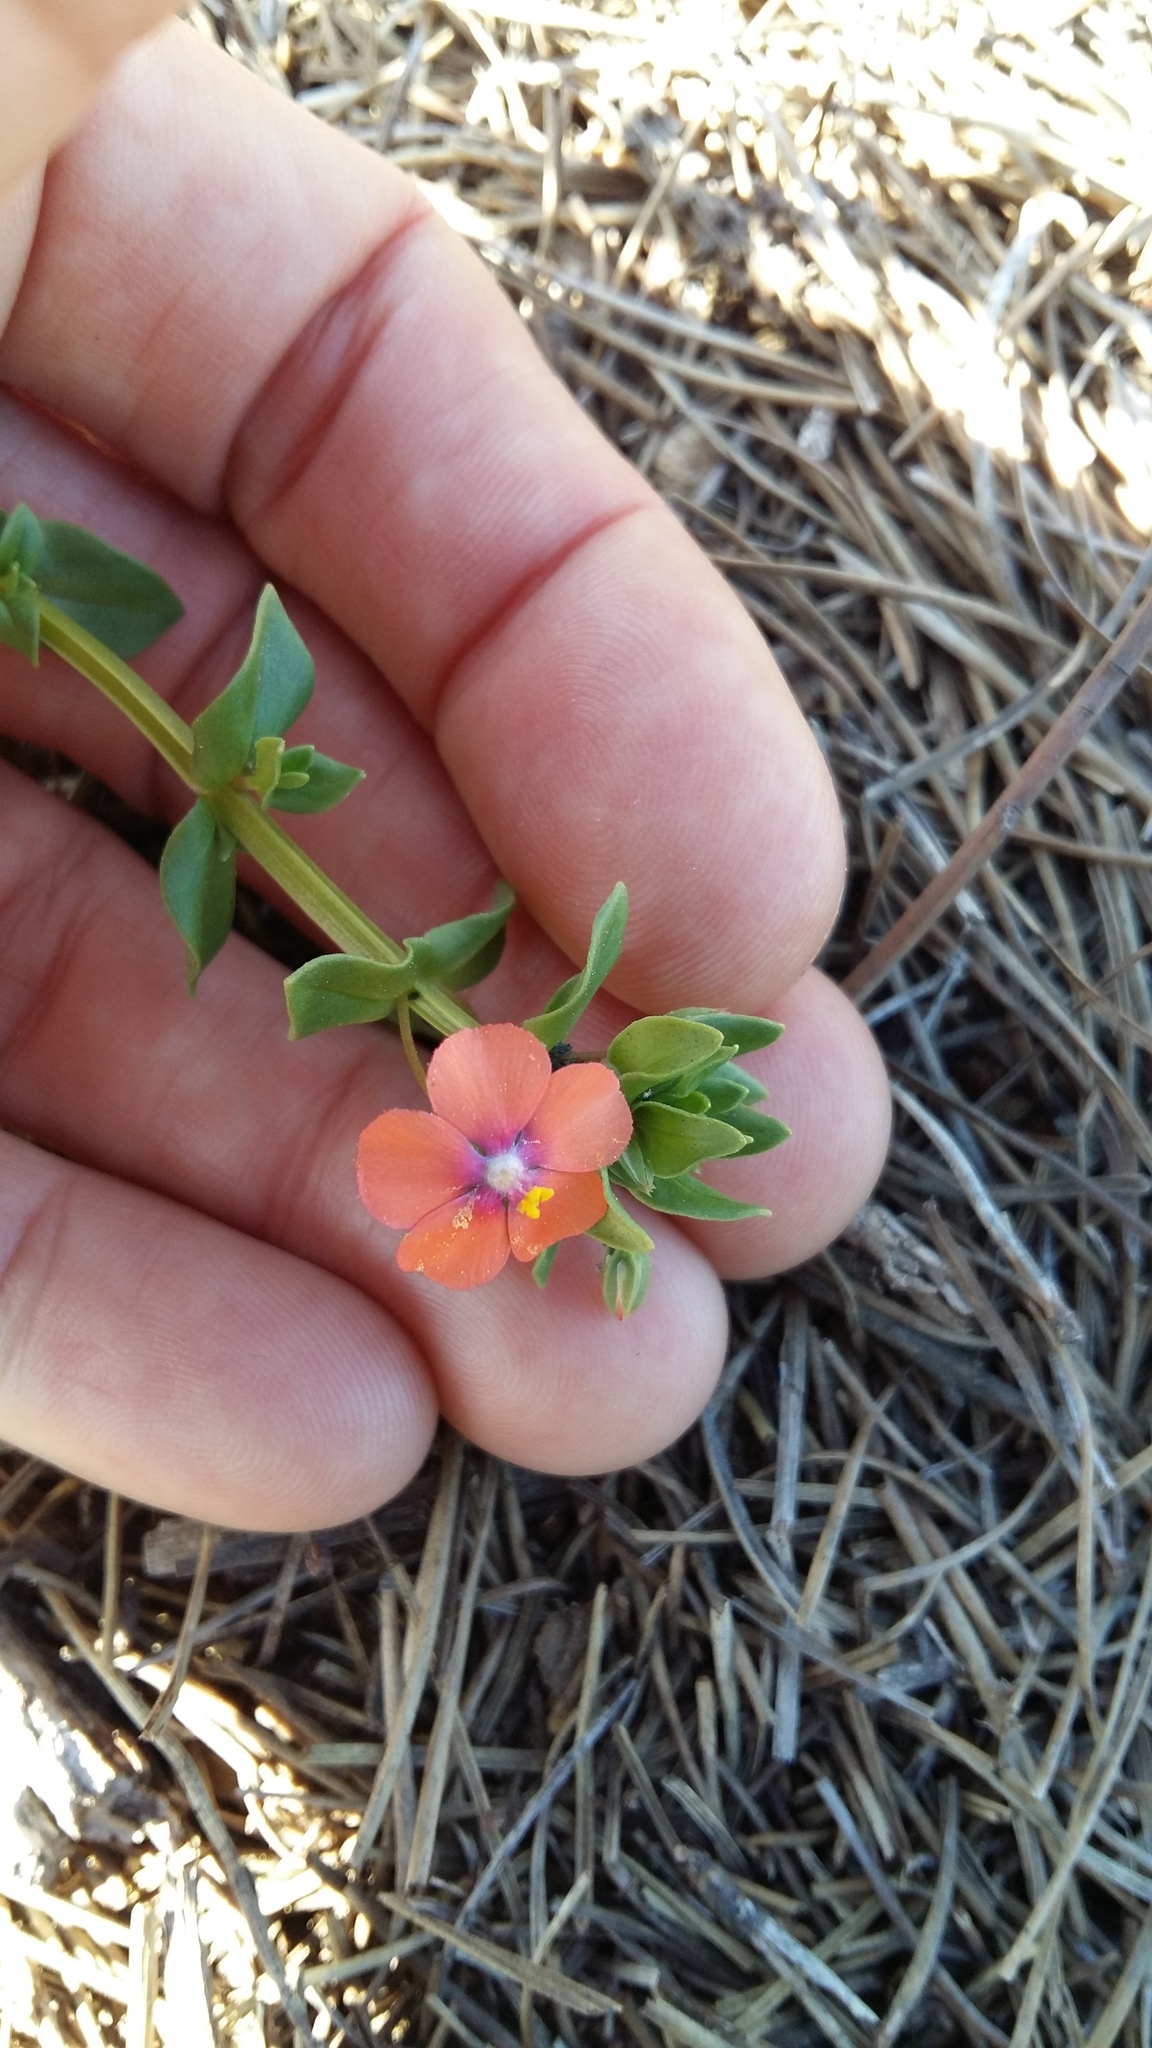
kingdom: Plantae
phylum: Tracheophyta
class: Magnoliopsida
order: Ericales
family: Primulaceae
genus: Lysimachia
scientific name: Lysimachia arvensis
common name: Scarlet pimpernel
